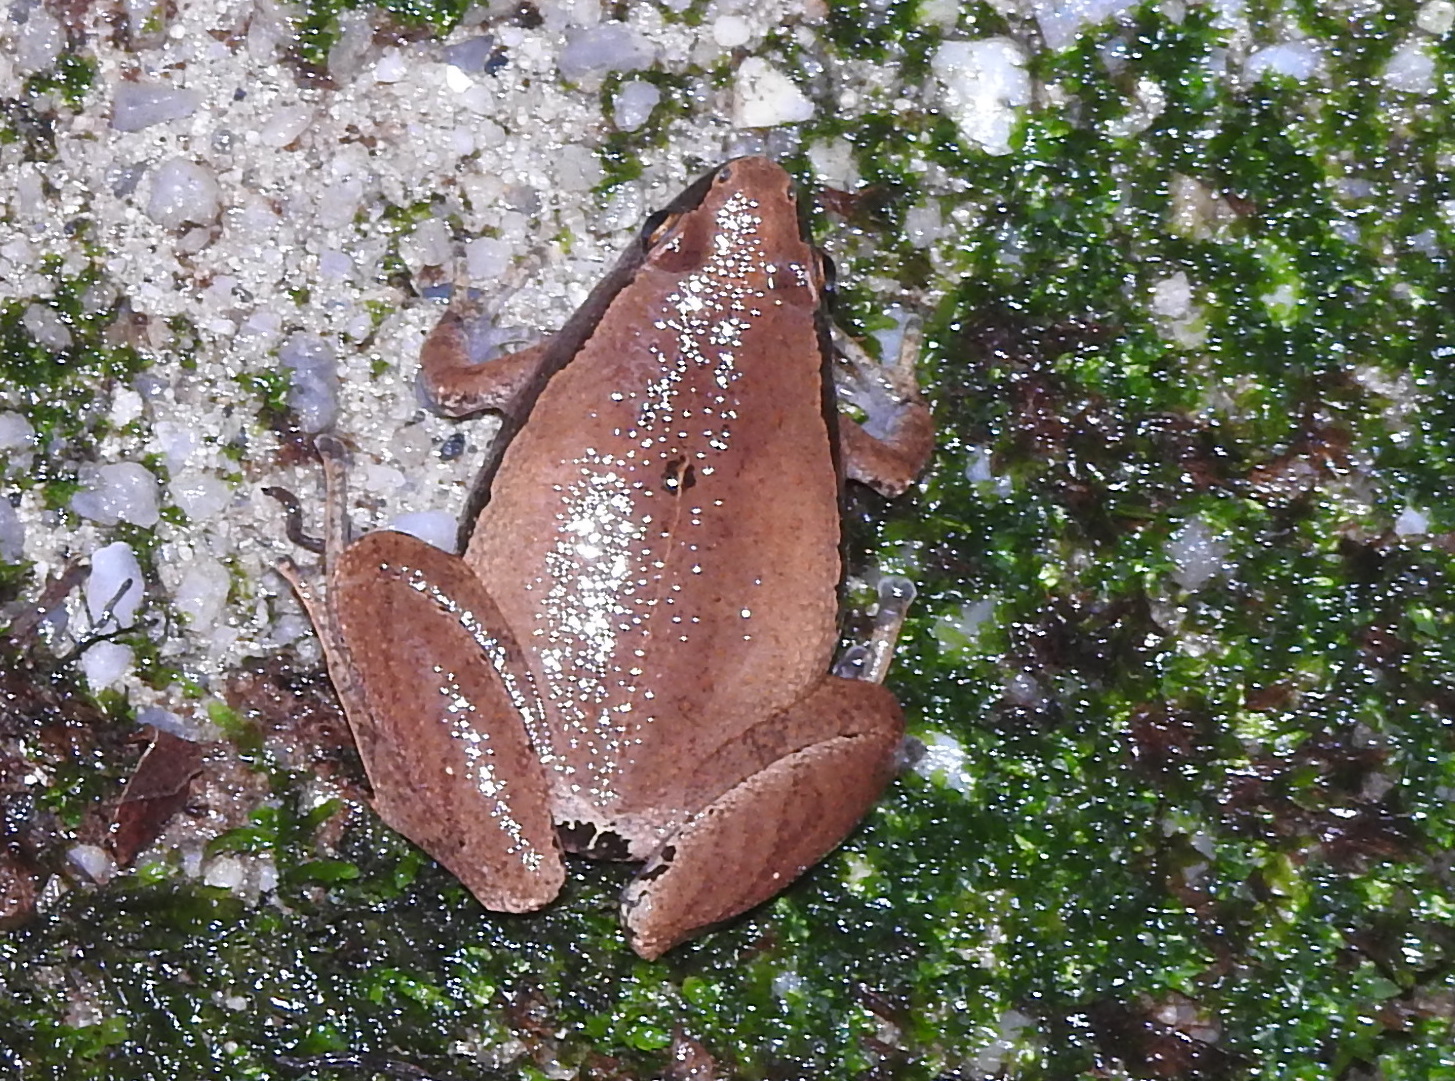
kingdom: Animalia
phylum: Chordata
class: Amphibia
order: Anura
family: Microhylidae
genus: Microhyla
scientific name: Microhyla heymonsi
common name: Taiwan rice frog,dark sided chorus frog
